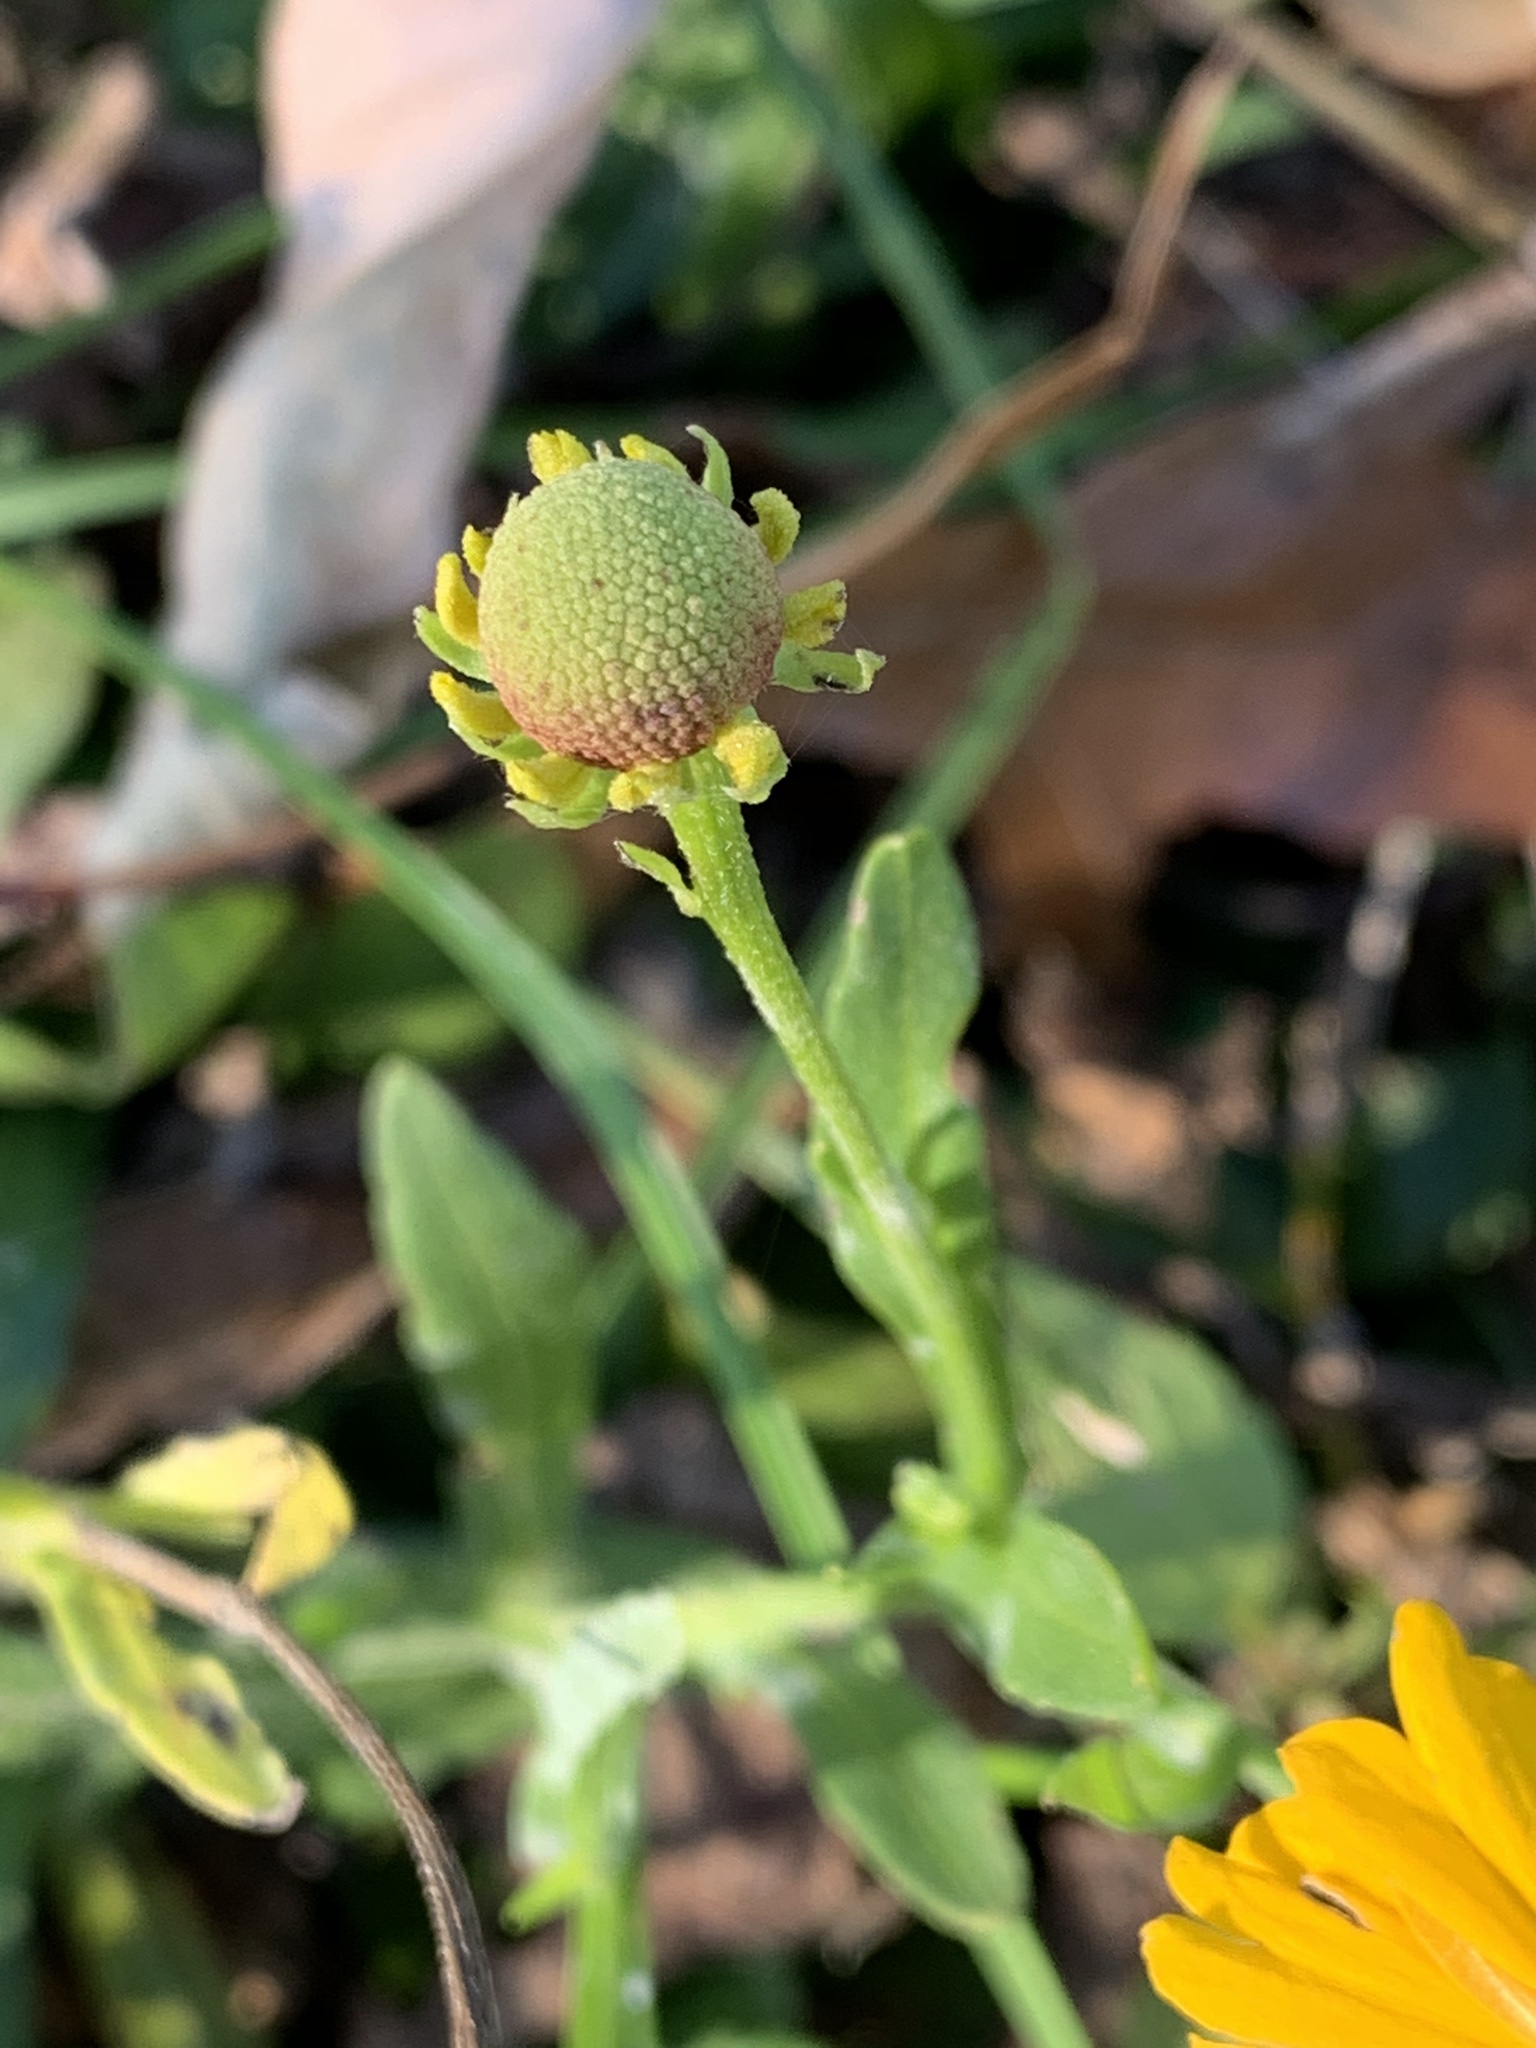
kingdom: Plantae
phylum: Tracheophyta
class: Magnoliopsida
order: Asterales
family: Asteraceae
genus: Helenium
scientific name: Helenium autumnale
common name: Sneezeweed
